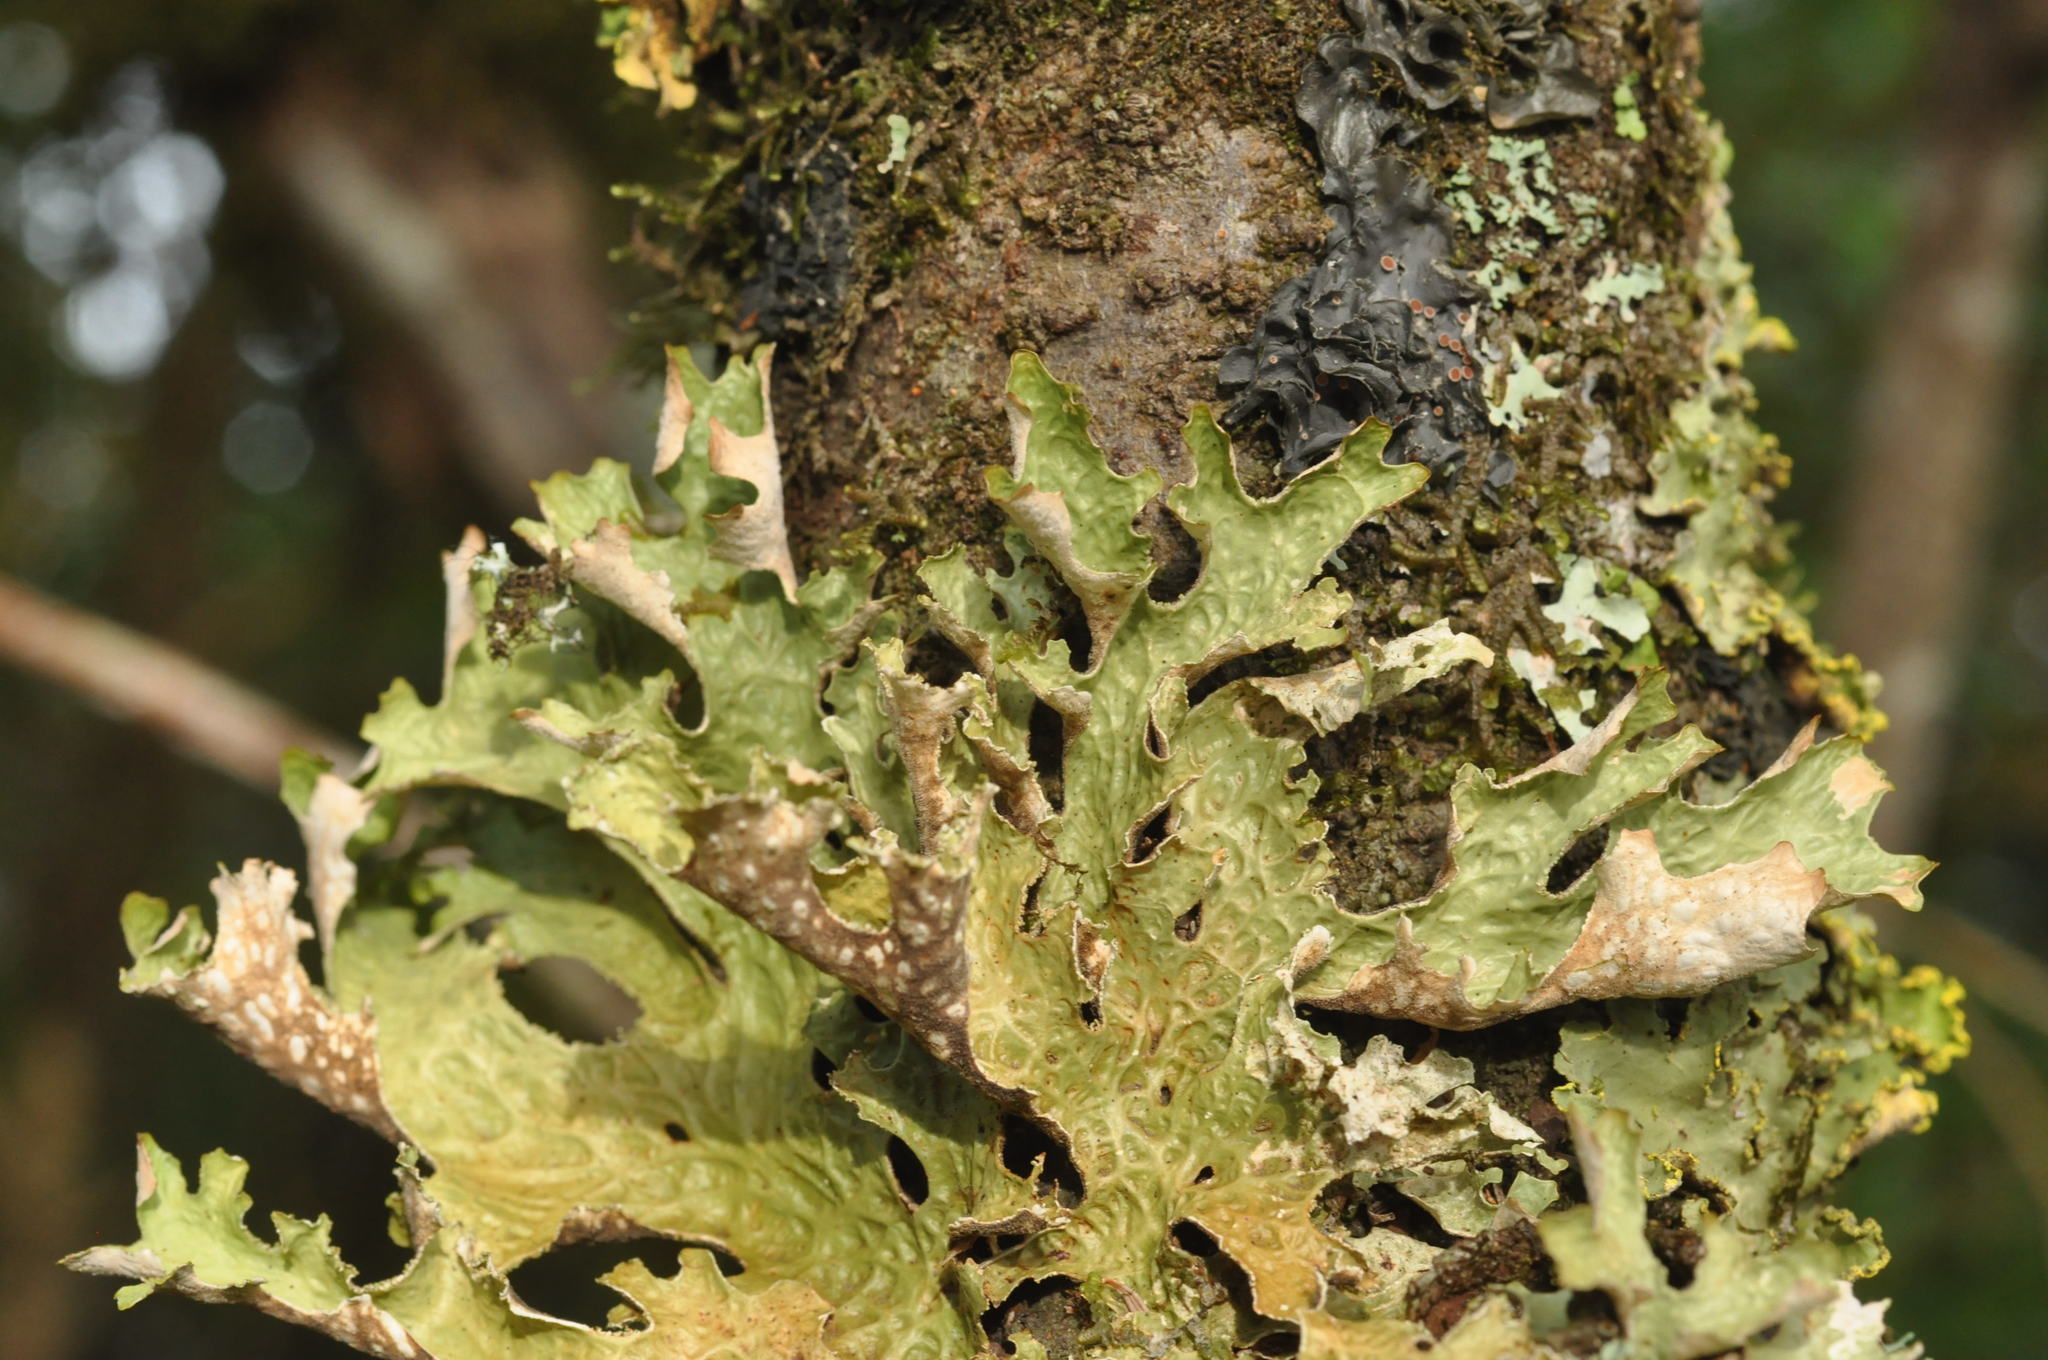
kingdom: Fungi
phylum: Ascomycota
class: Lecanoromycetes
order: Peltigerales
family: Lobariaceae
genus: Lobaria
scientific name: Lobaria pulmonaria
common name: Lungwort
